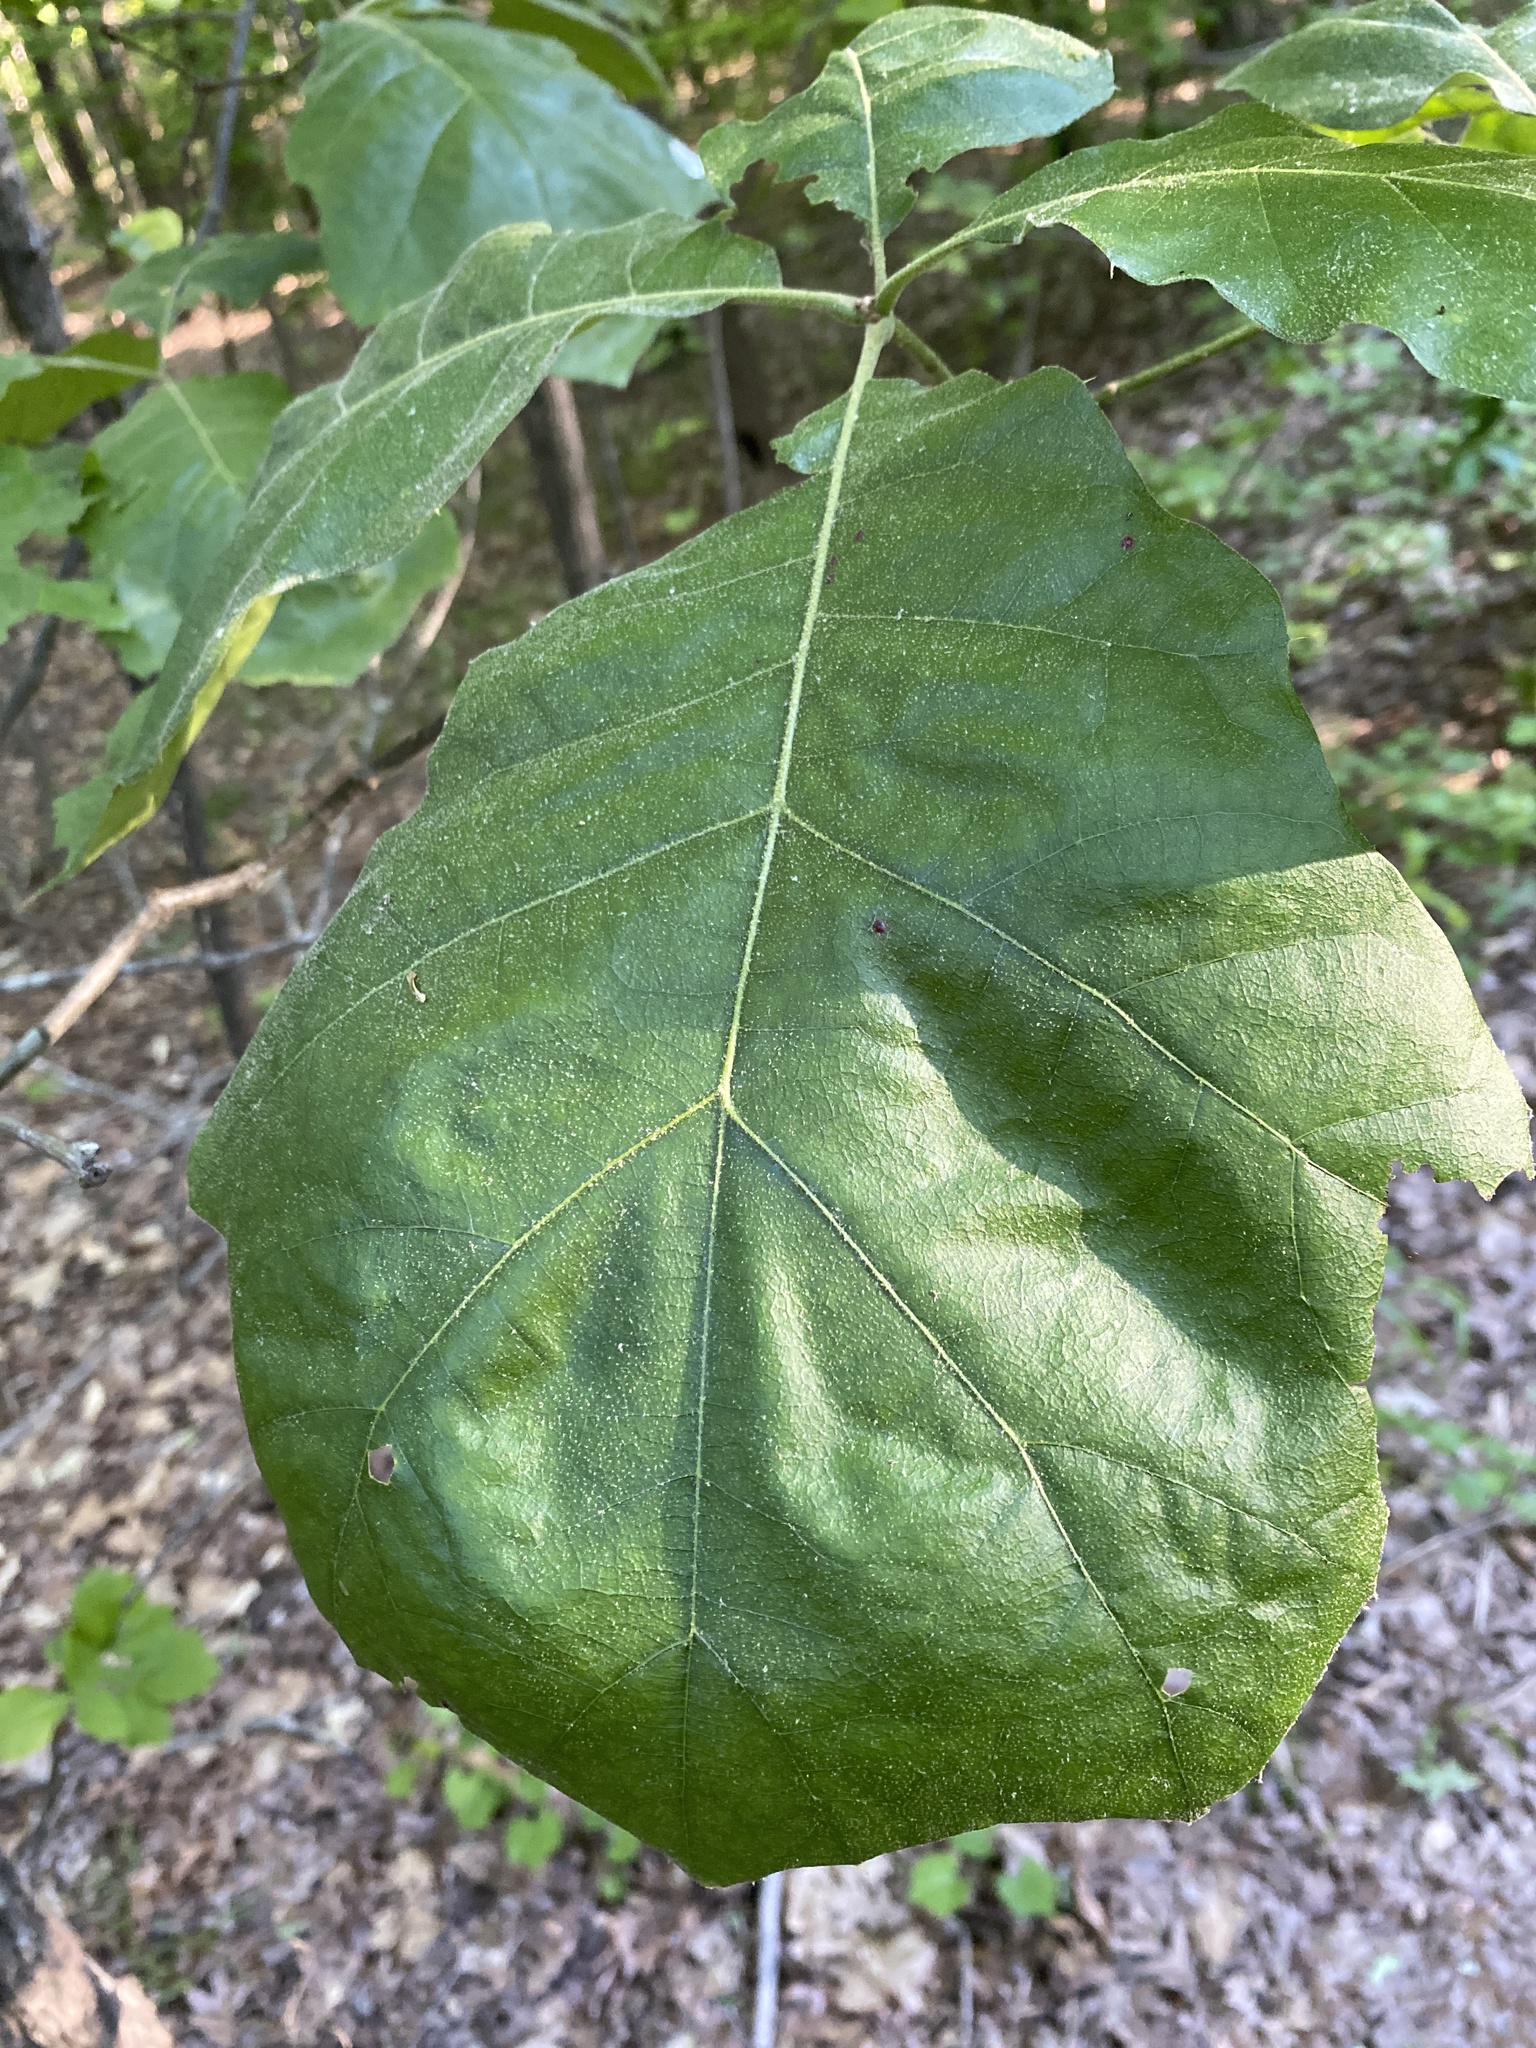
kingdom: Plantae
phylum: Tracheophyta
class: Magnoliopsida
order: Fagales
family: Fagaceae
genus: Quercus
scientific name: Quercus velutina
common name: Black oak
